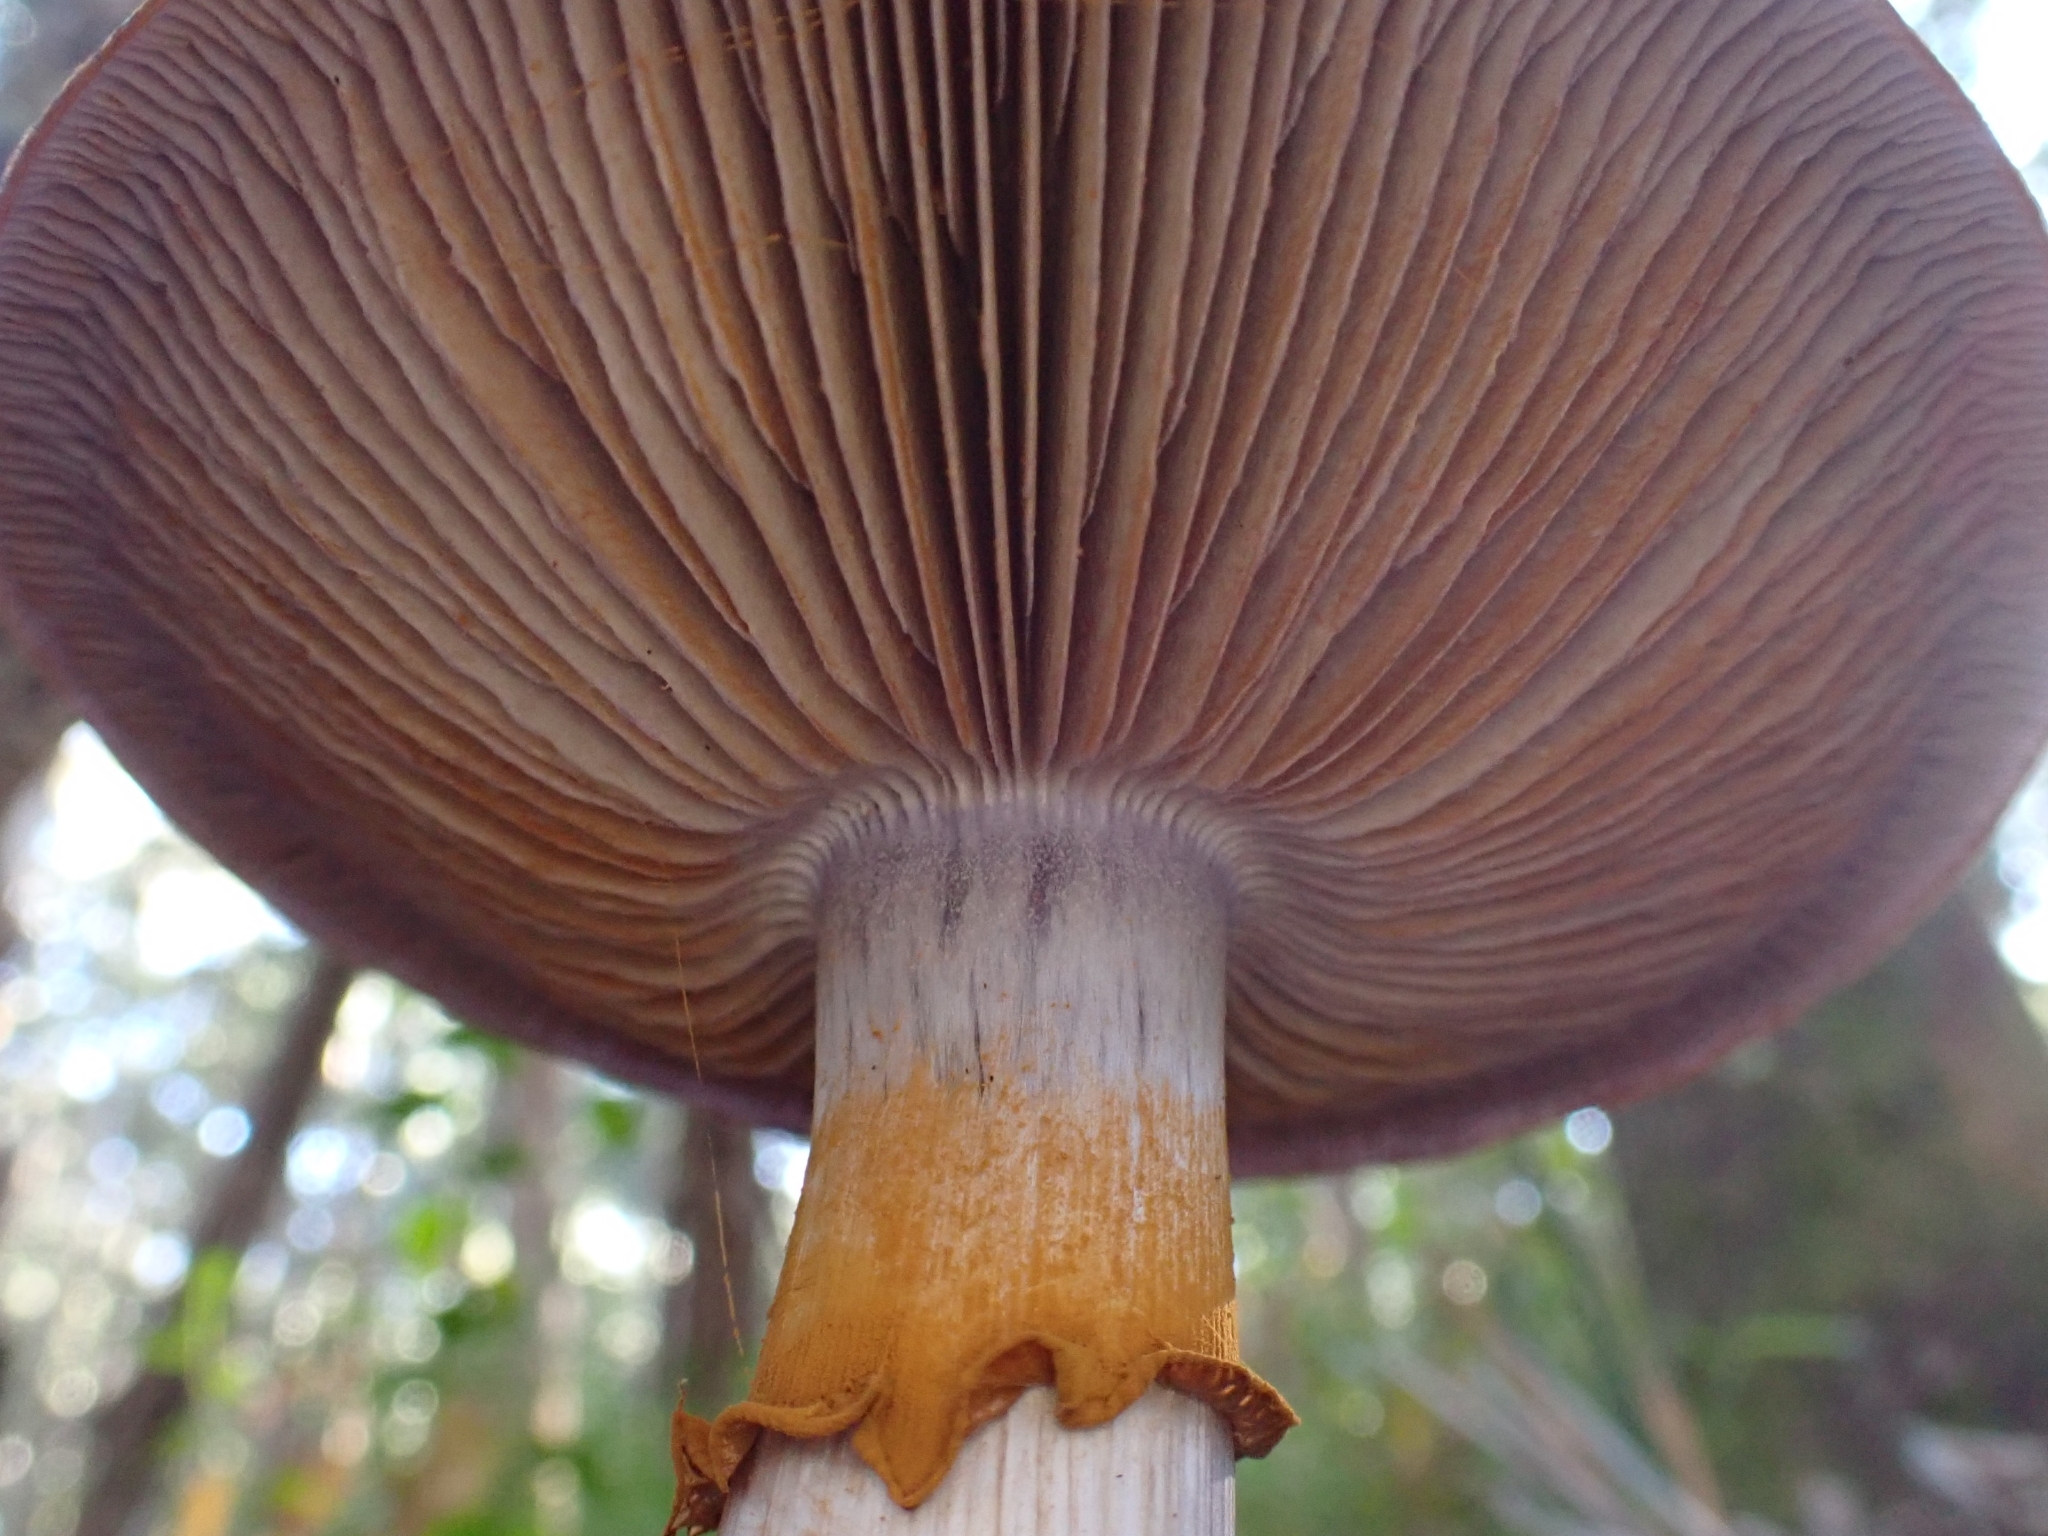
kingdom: Fungi
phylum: Basidiomycota
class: Agaricomycetes
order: Agaricales
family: Cortinariaceae
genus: Cortinarius
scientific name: Cortinarius archeri
